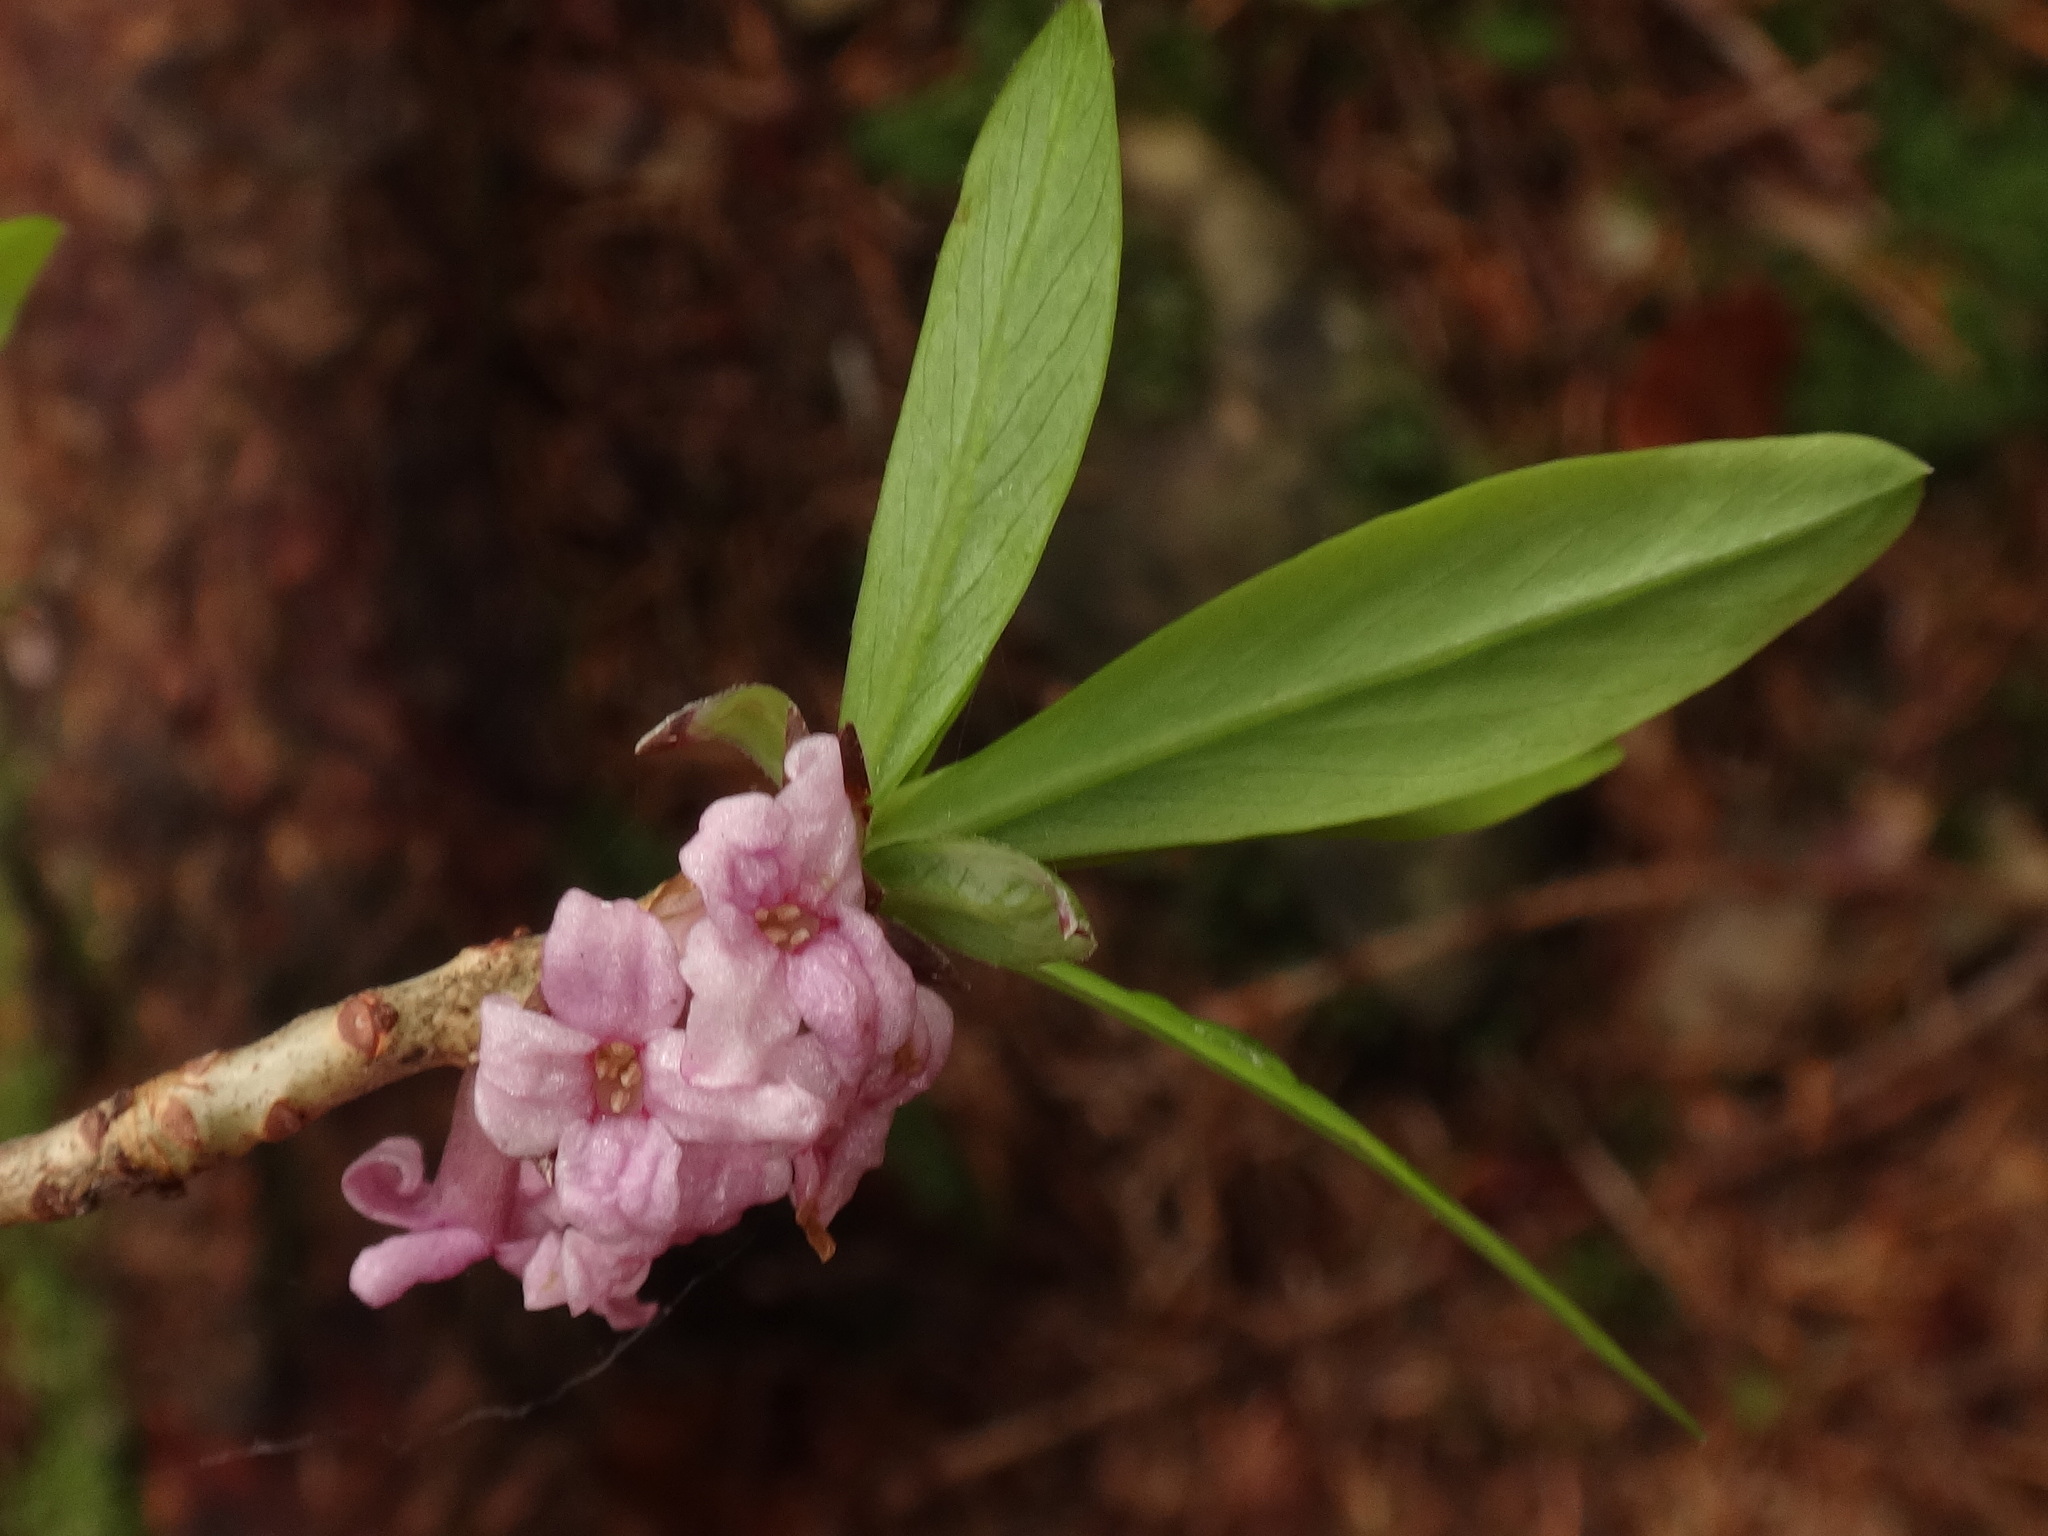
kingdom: Plantae
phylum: Tracheophyta
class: Magnoliopsida
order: Malvales
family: Thymelaeaceae
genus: Daphne
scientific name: Daphne mezereum
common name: Mezereon
